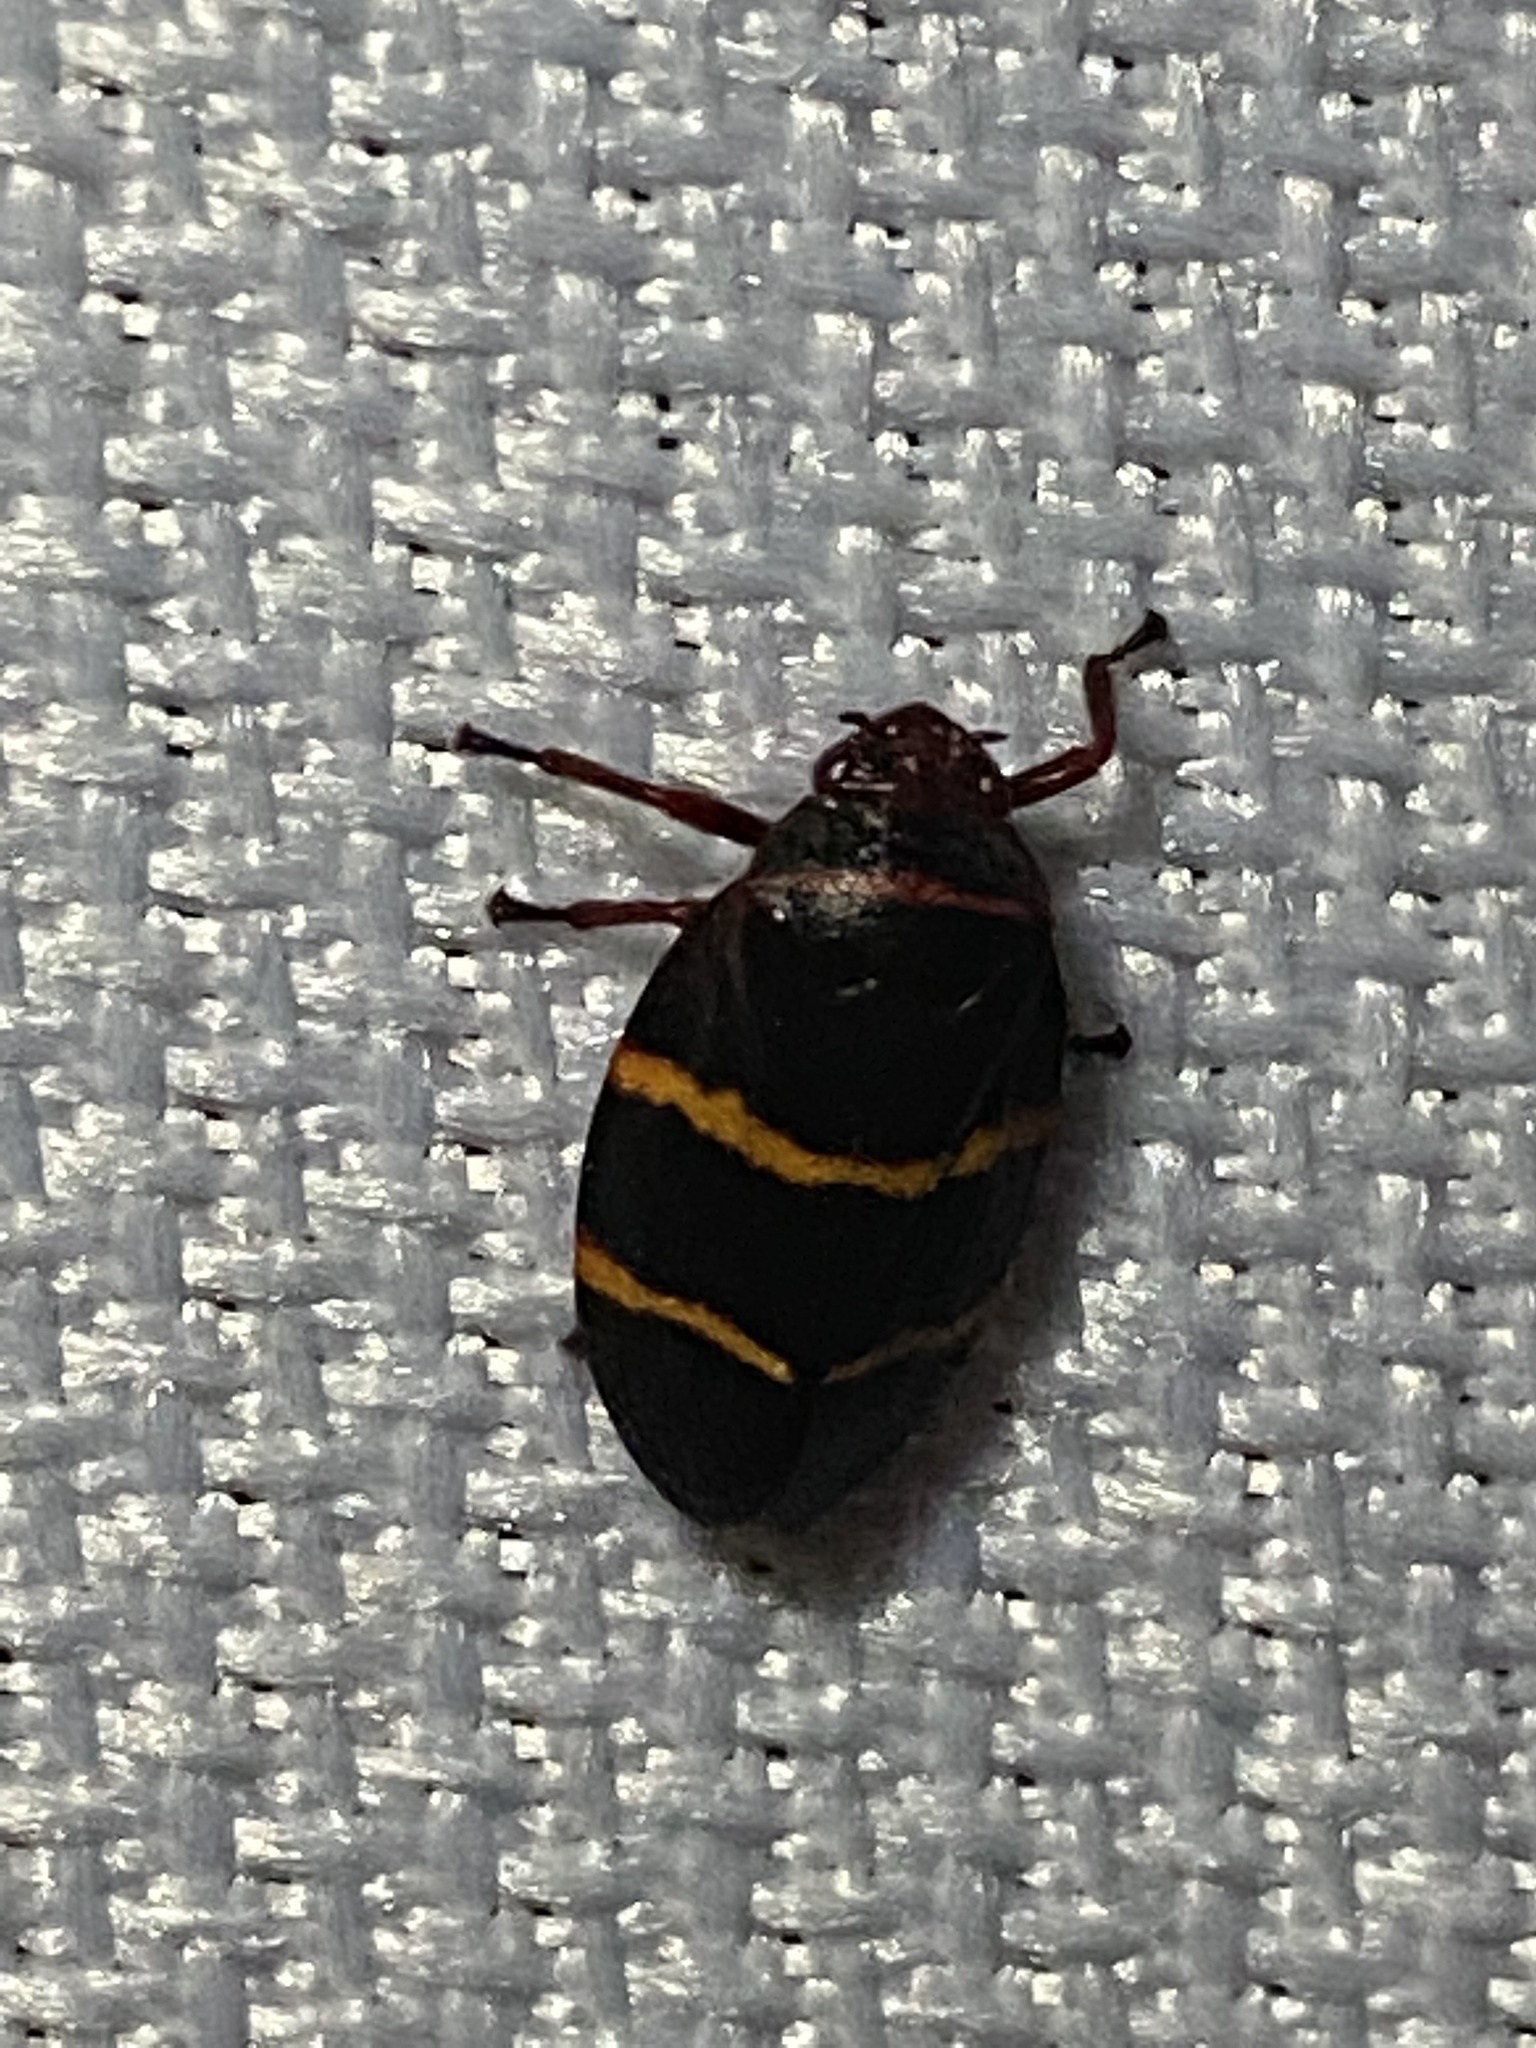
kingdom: Animalia
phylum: Arthropoda
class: Insecta
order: Hemiptera
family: Cercopidae
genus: Prosapia
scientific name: Prosapia bicincta
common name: Twolined spittlebug
